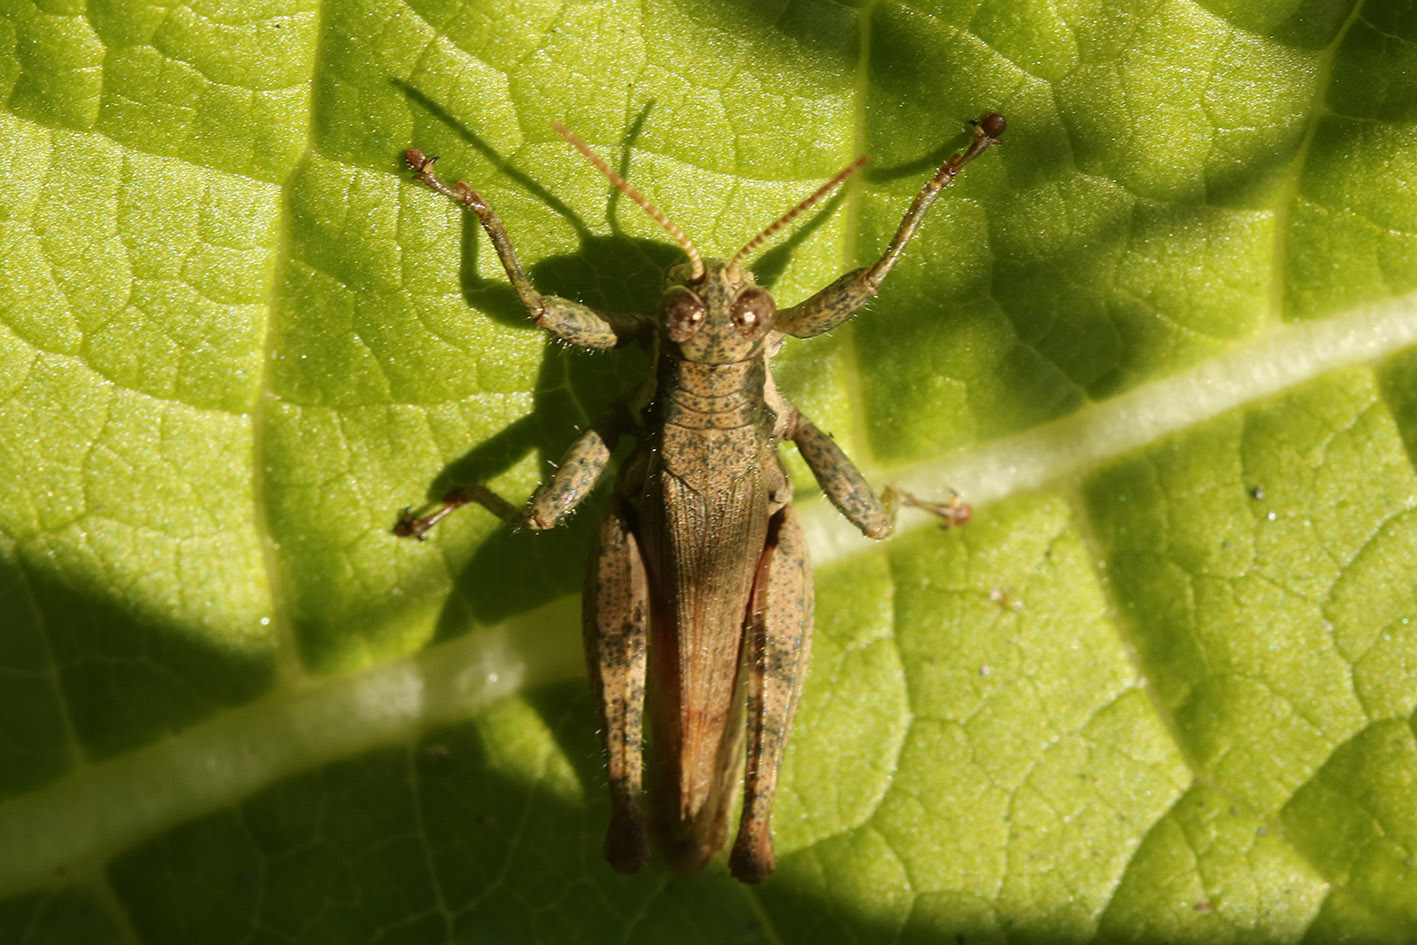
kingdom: Animalia
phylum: Arthropoda
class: Insecta
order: Orthoptera
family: Acrididae
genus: Ronderosia
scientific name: Ronderosia bergii
